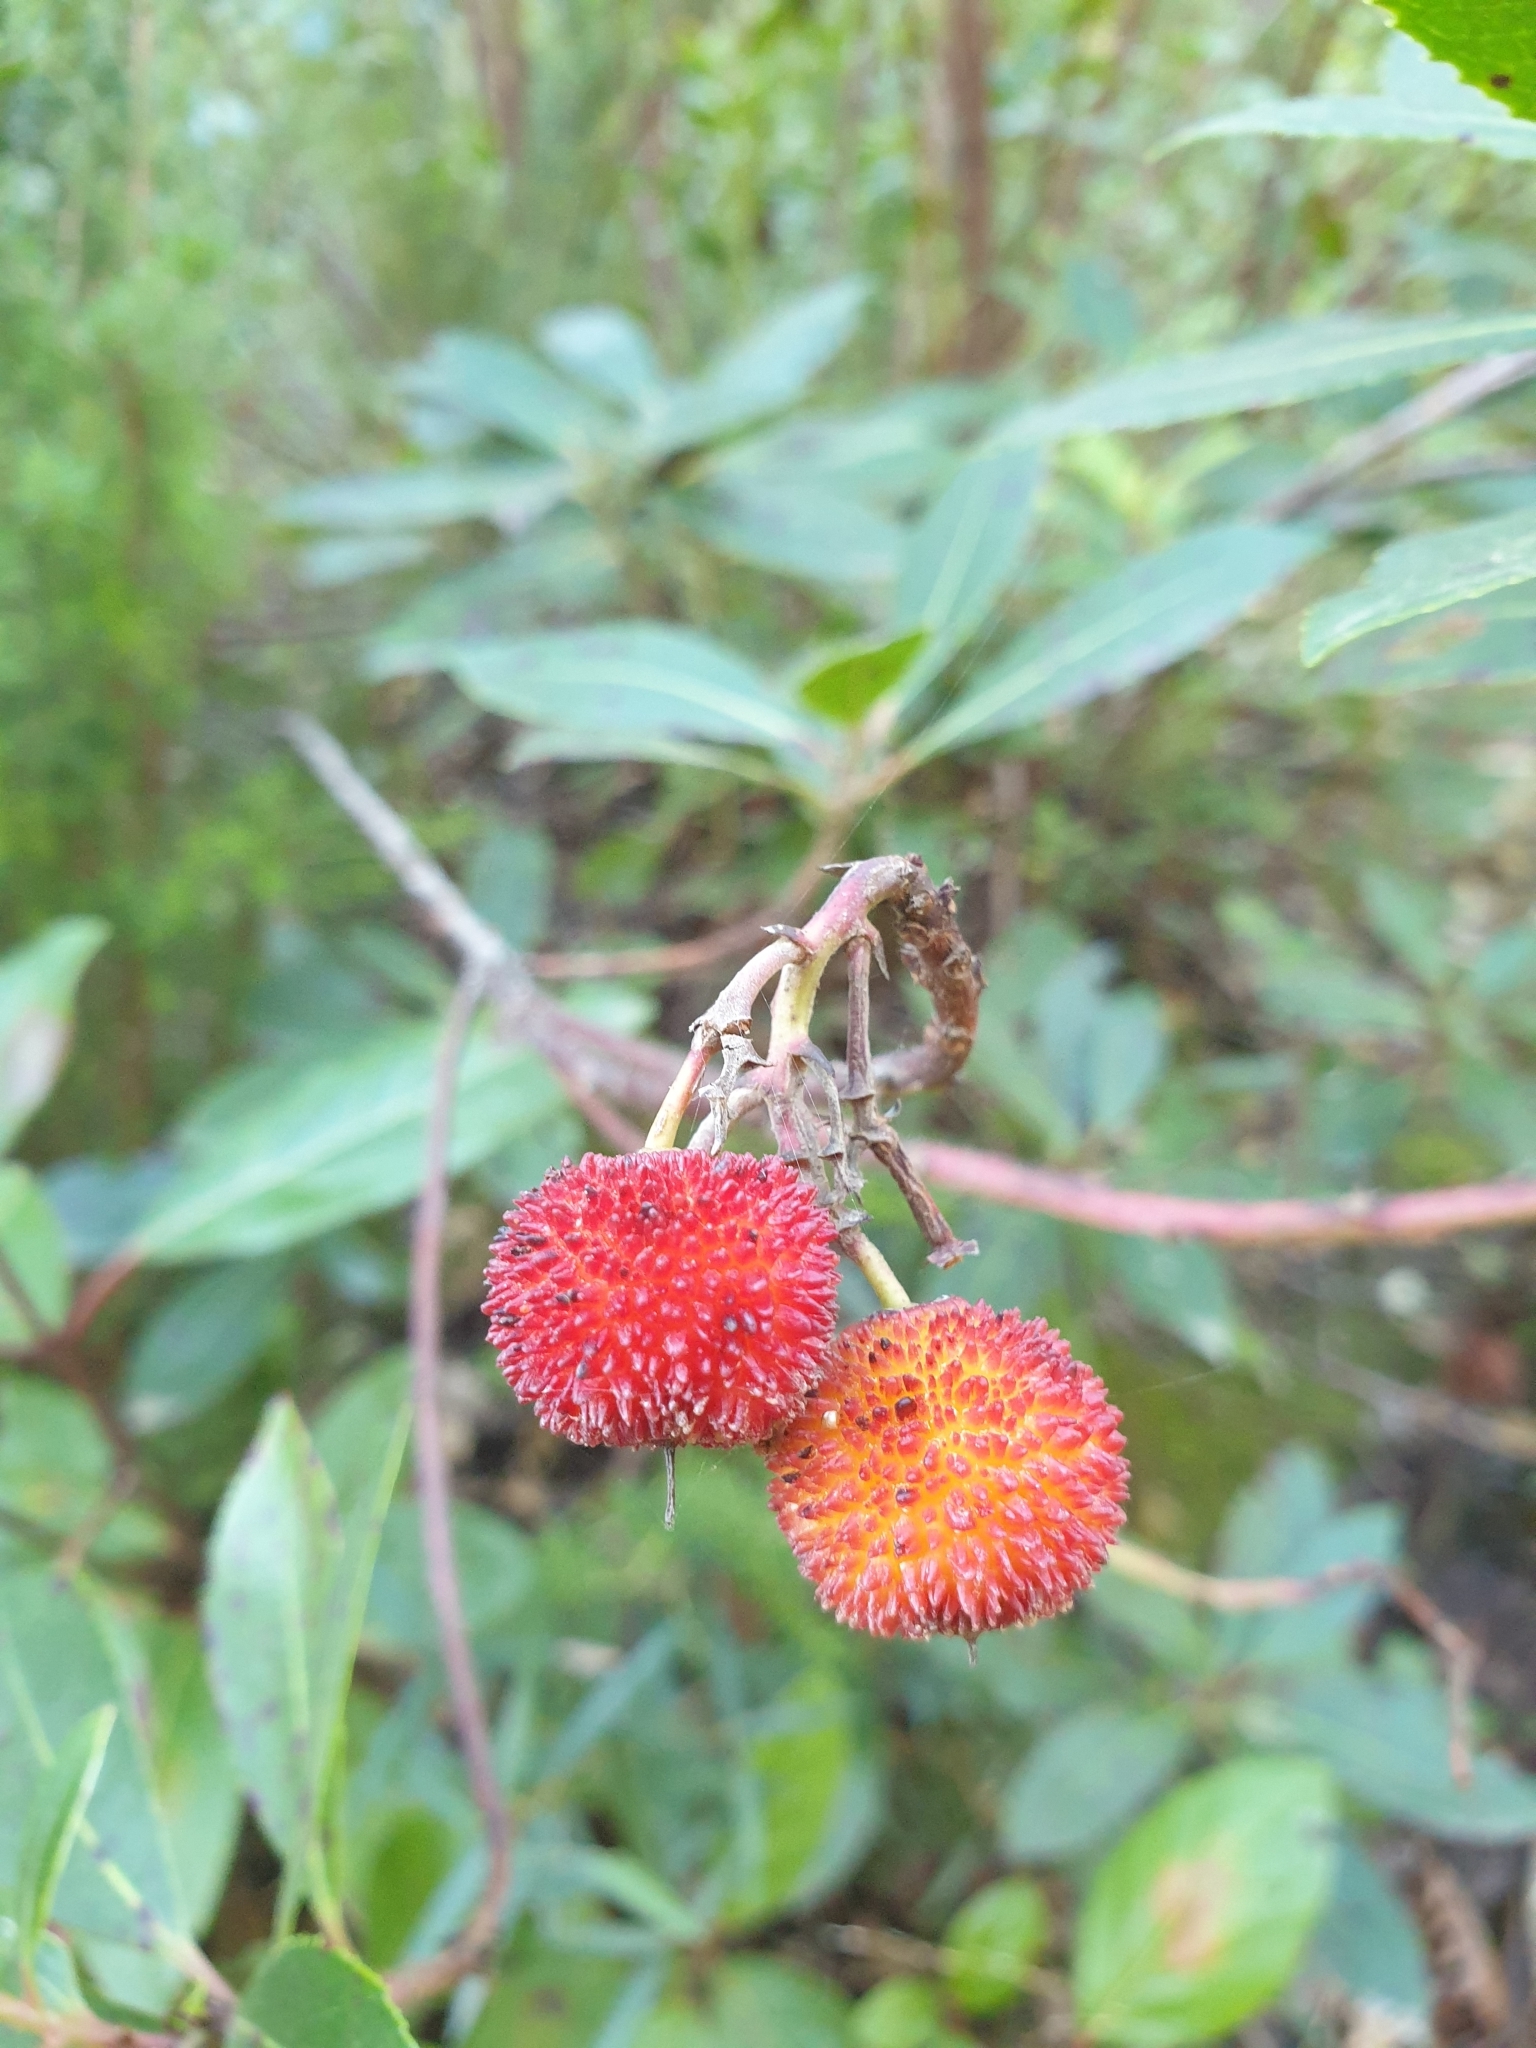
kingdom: Plantae
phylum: Tracheophyta
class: Magnoliopsida
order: Ericales
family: Ericaceae
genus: Arbutus
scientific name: Arbutus unedo
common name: Strawberry-tree
